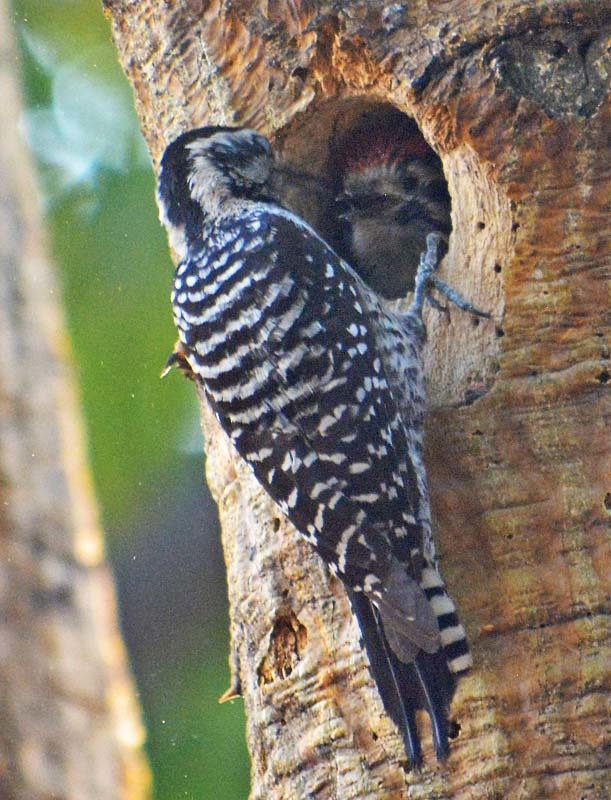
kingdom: Animalia
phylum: Chordata
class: Aves
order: Piciformes
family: Picidae
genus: Dryobates
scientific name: Dryobates scalaris
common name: Ladder-backed woodpecker
